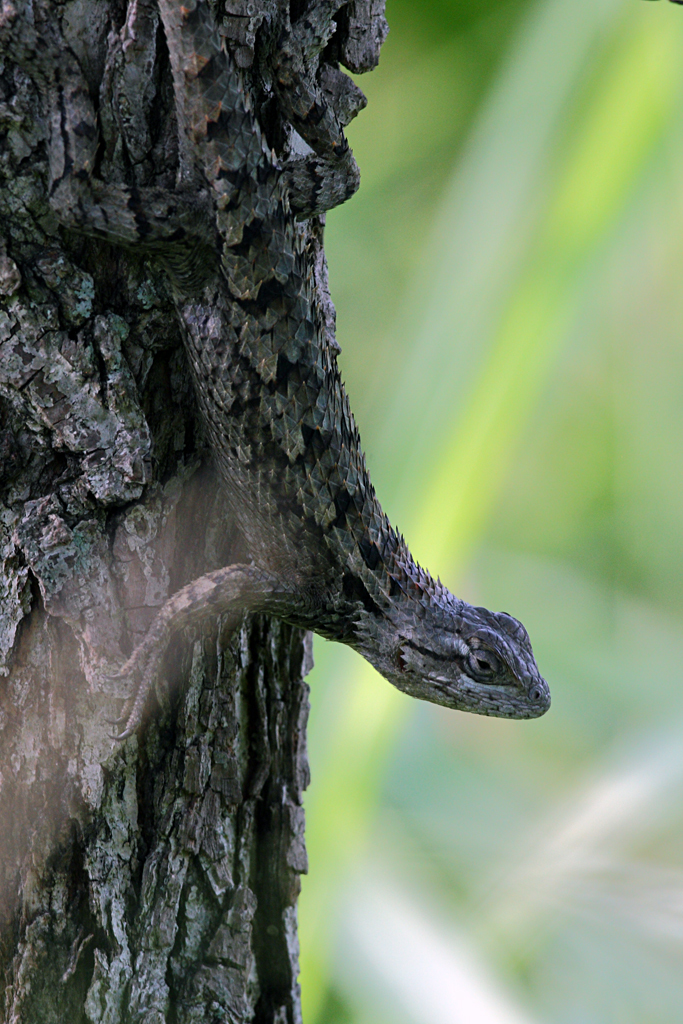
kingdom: Animalia
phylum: Chordata
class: Squamata
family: Phrynosomatidae
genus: Sceloporus
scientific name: Sceloporus olivaceus
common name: Texas spiny lizard
